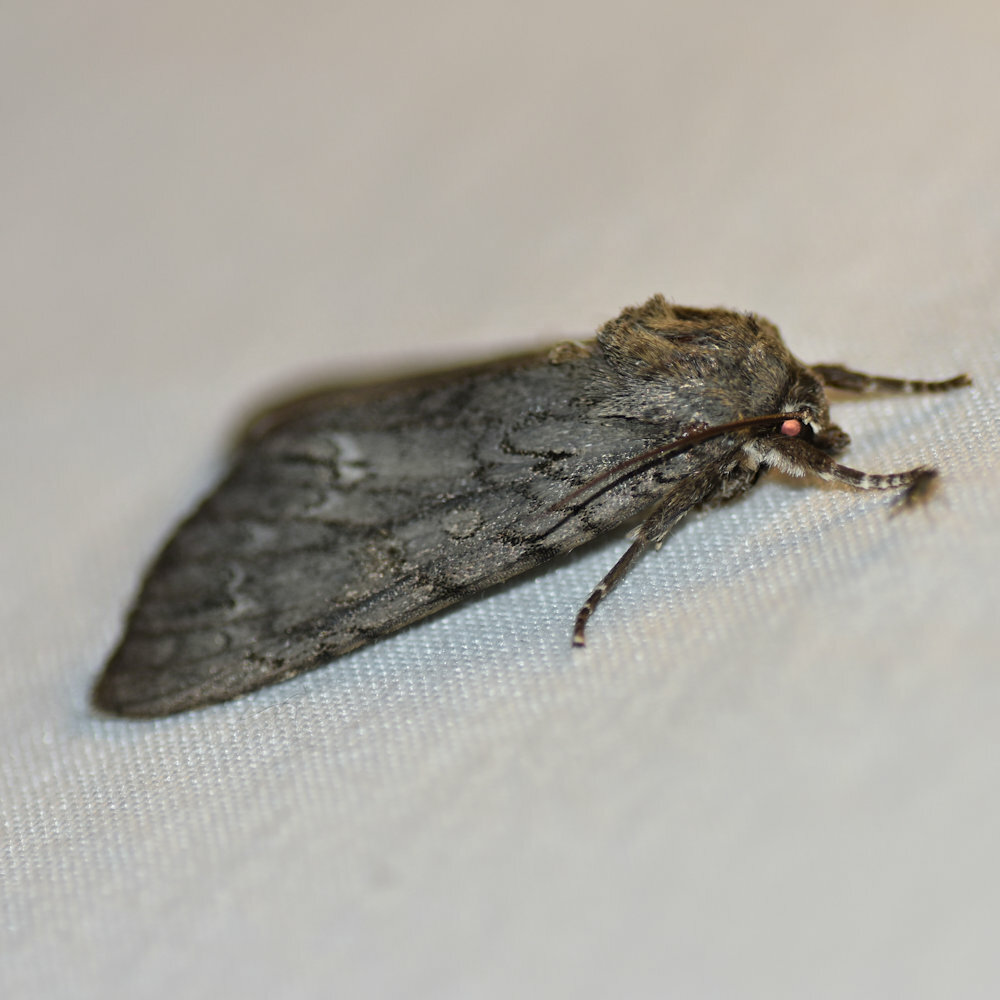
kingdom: Animalia
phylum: Arthropoda
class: Insecta
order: Lepidoptera
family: Noctuidae
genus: Acronicta
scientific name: Acronicta americana
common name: American dagger
